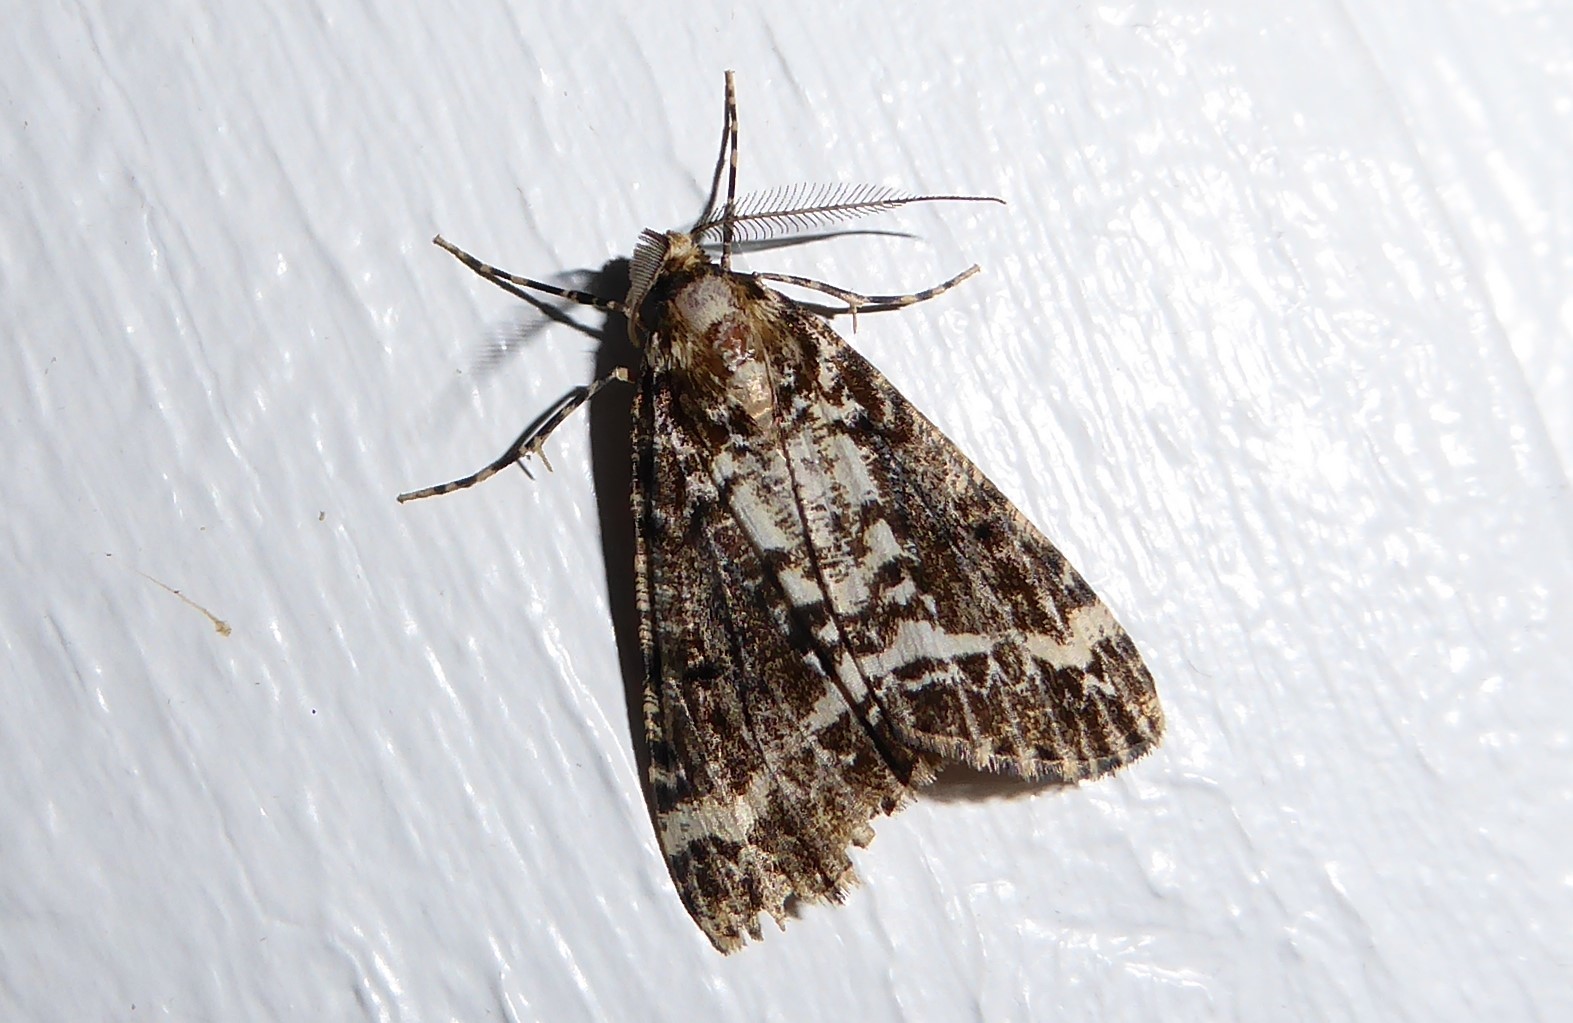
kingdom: Animalia
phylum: Arthropoda
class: Insecta
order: Lepidoptera
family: Geometridae
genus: Pseudocoremia
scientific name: Pseudocoremia leucelaea
